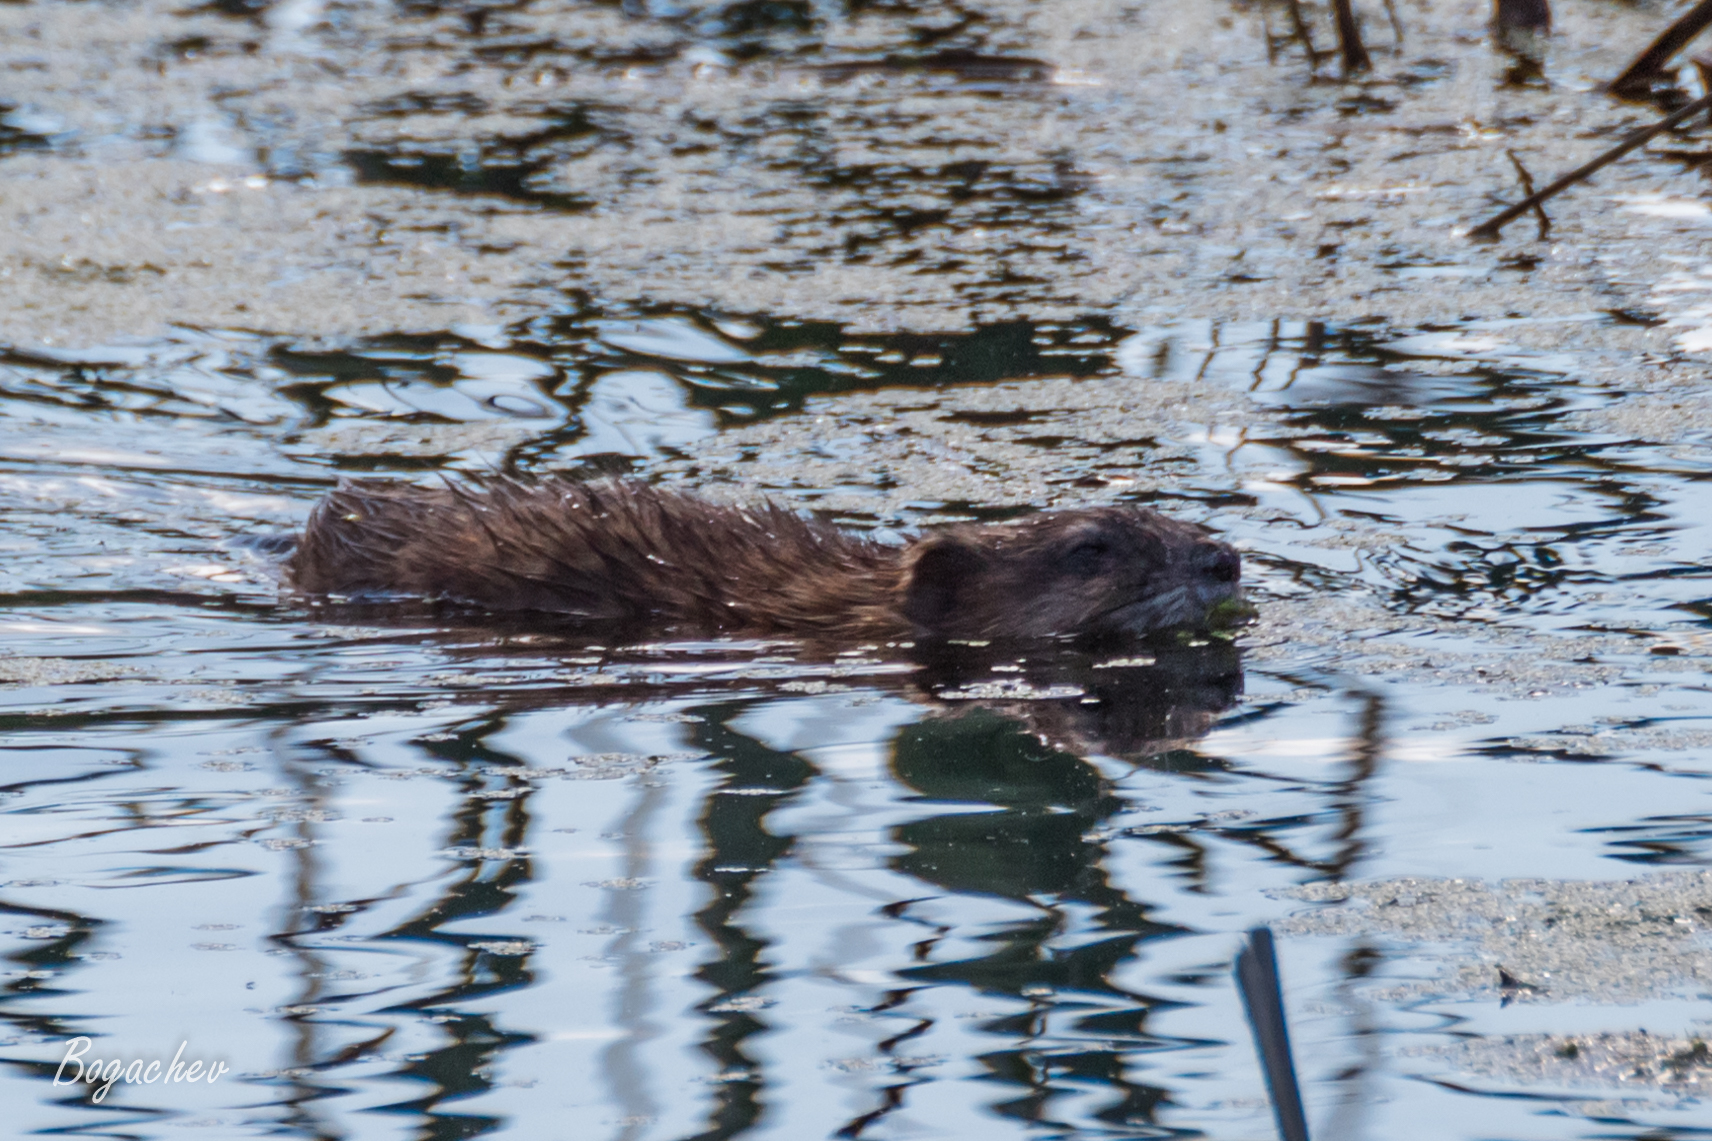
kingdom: Animalia
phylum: Chordata
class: Mammalia
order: Rodentia
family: Cricetidae
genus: Ondatra
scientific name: Ondatra zibethicus
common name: Muskrat
